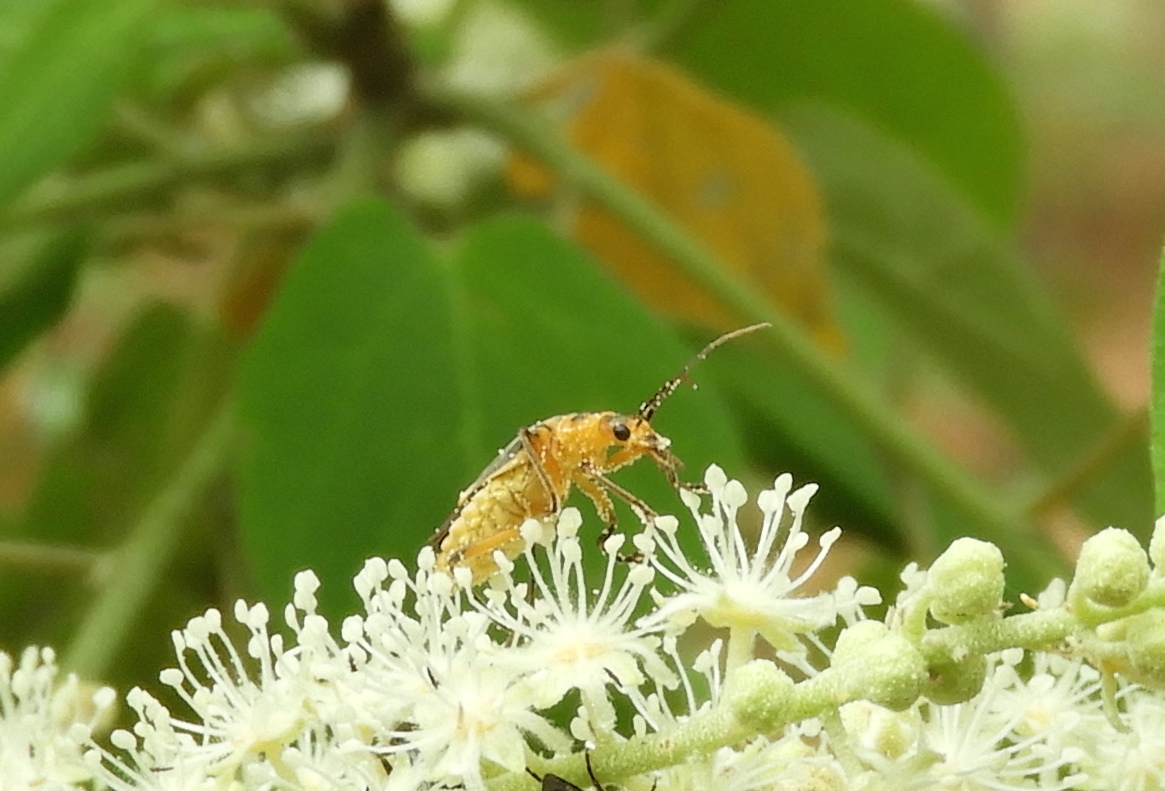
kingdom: Animalia
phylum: Arthropoda
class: Insecta
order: Coleoptera
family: Cantharidae
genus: Chauliognathus
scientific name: Chauliognathus
